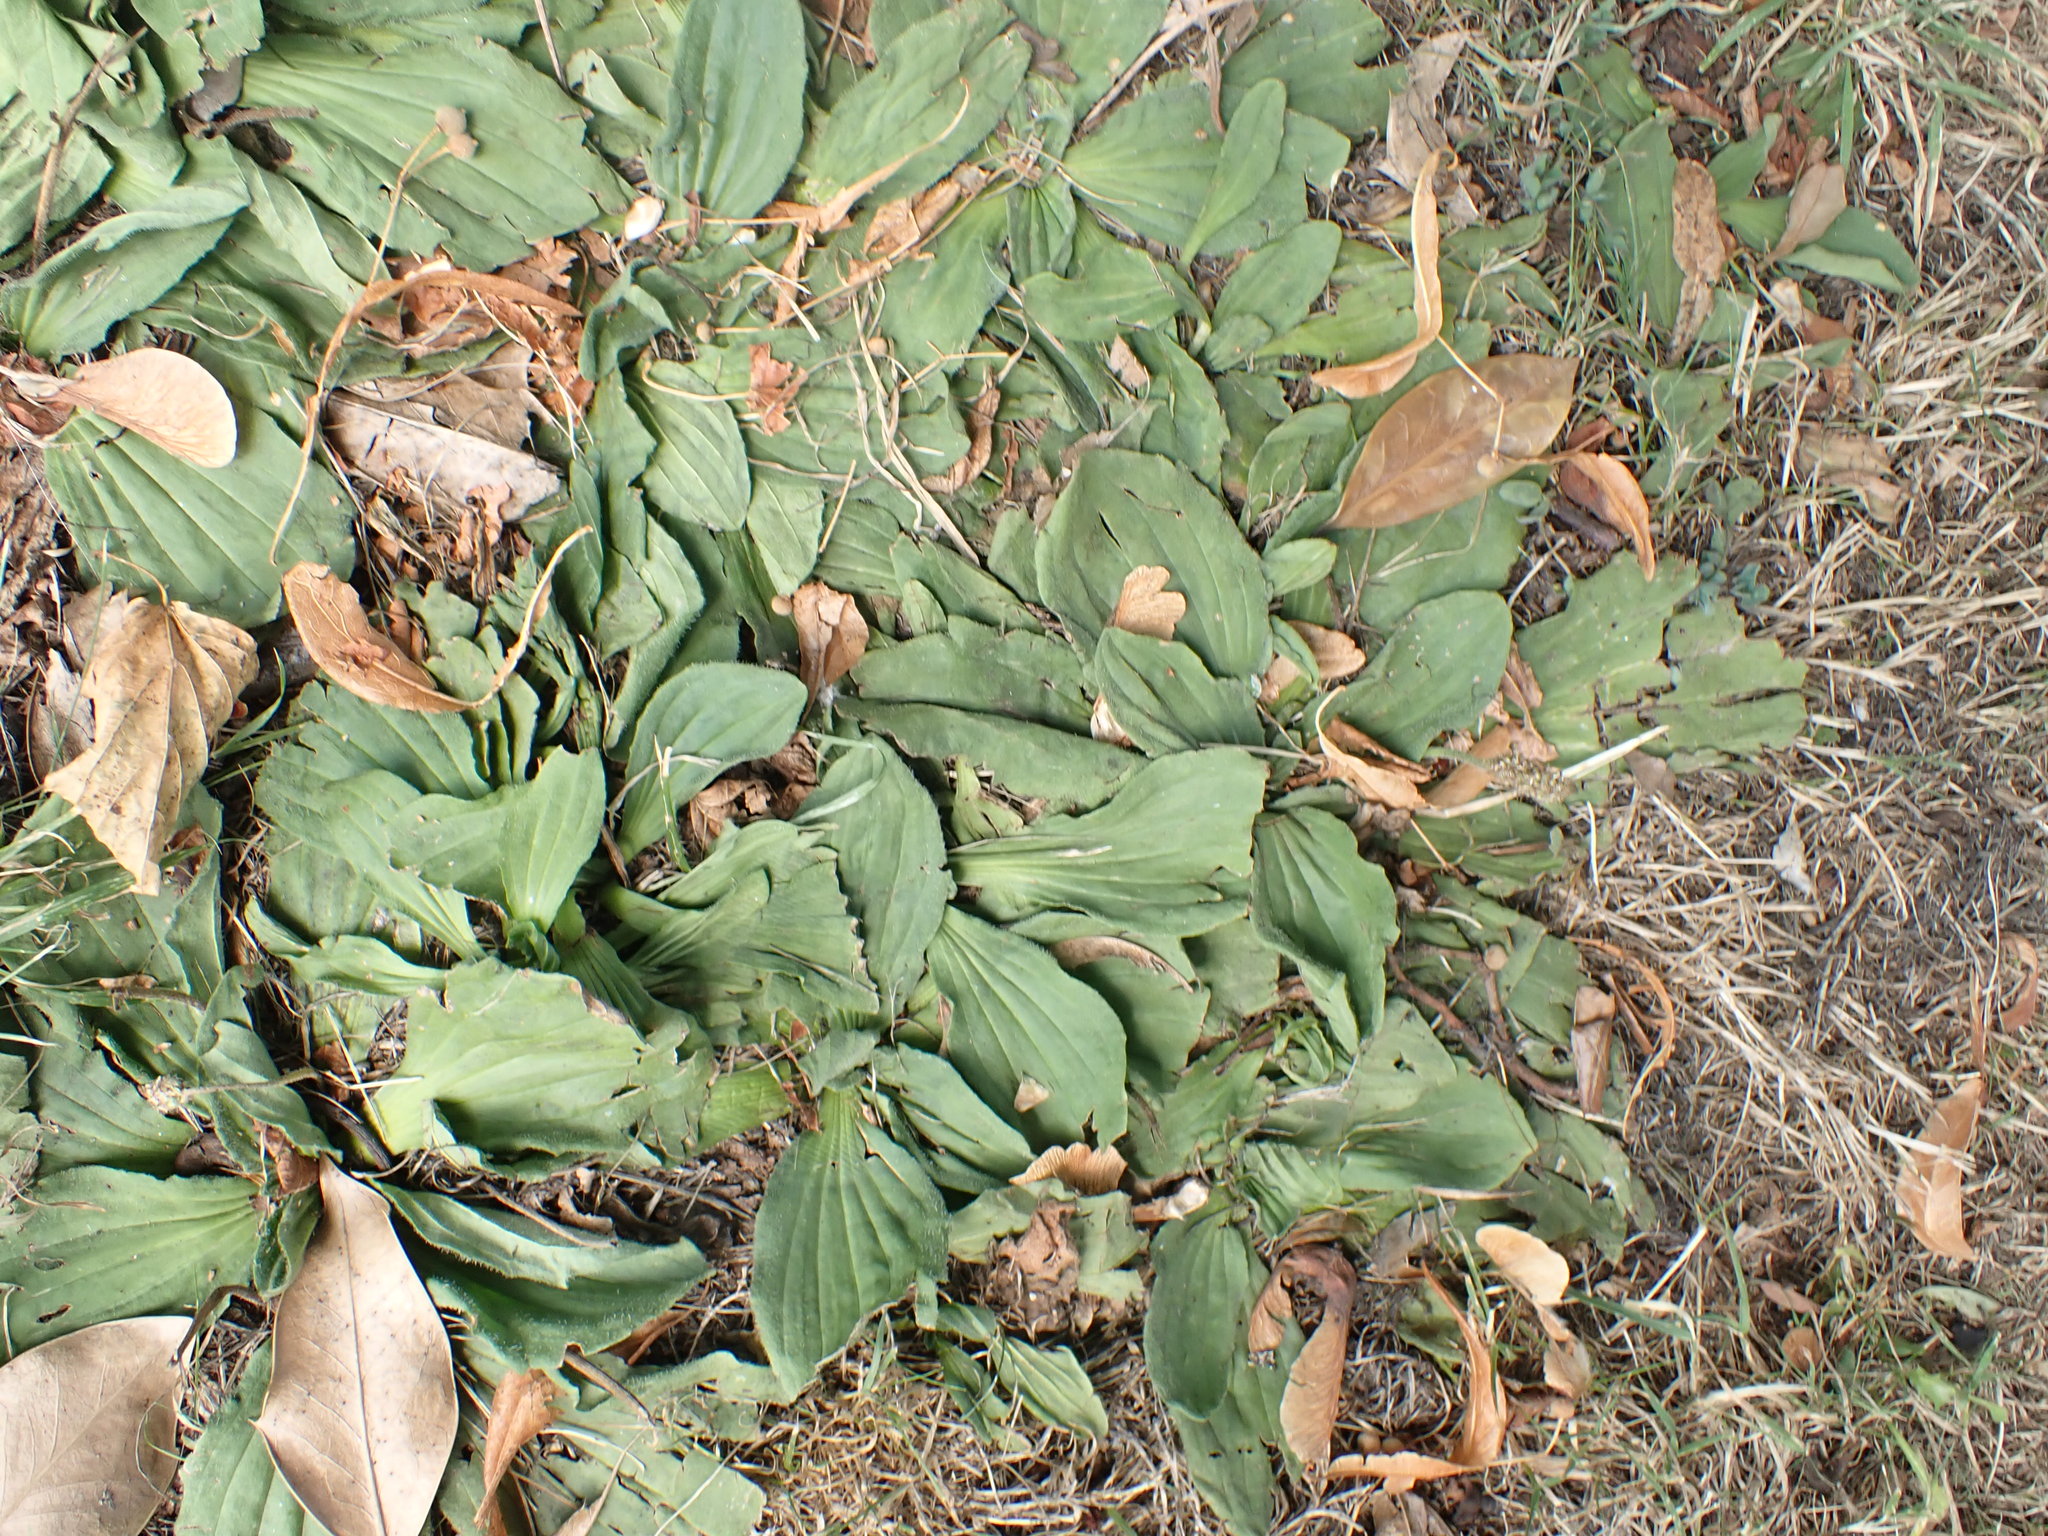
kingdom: Plantae
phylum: Tracheophyta
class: Magnoliopsida
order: Lamiales
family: Plantaginaceae
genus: Plantago
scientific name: Plantago major
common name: Common plantain
